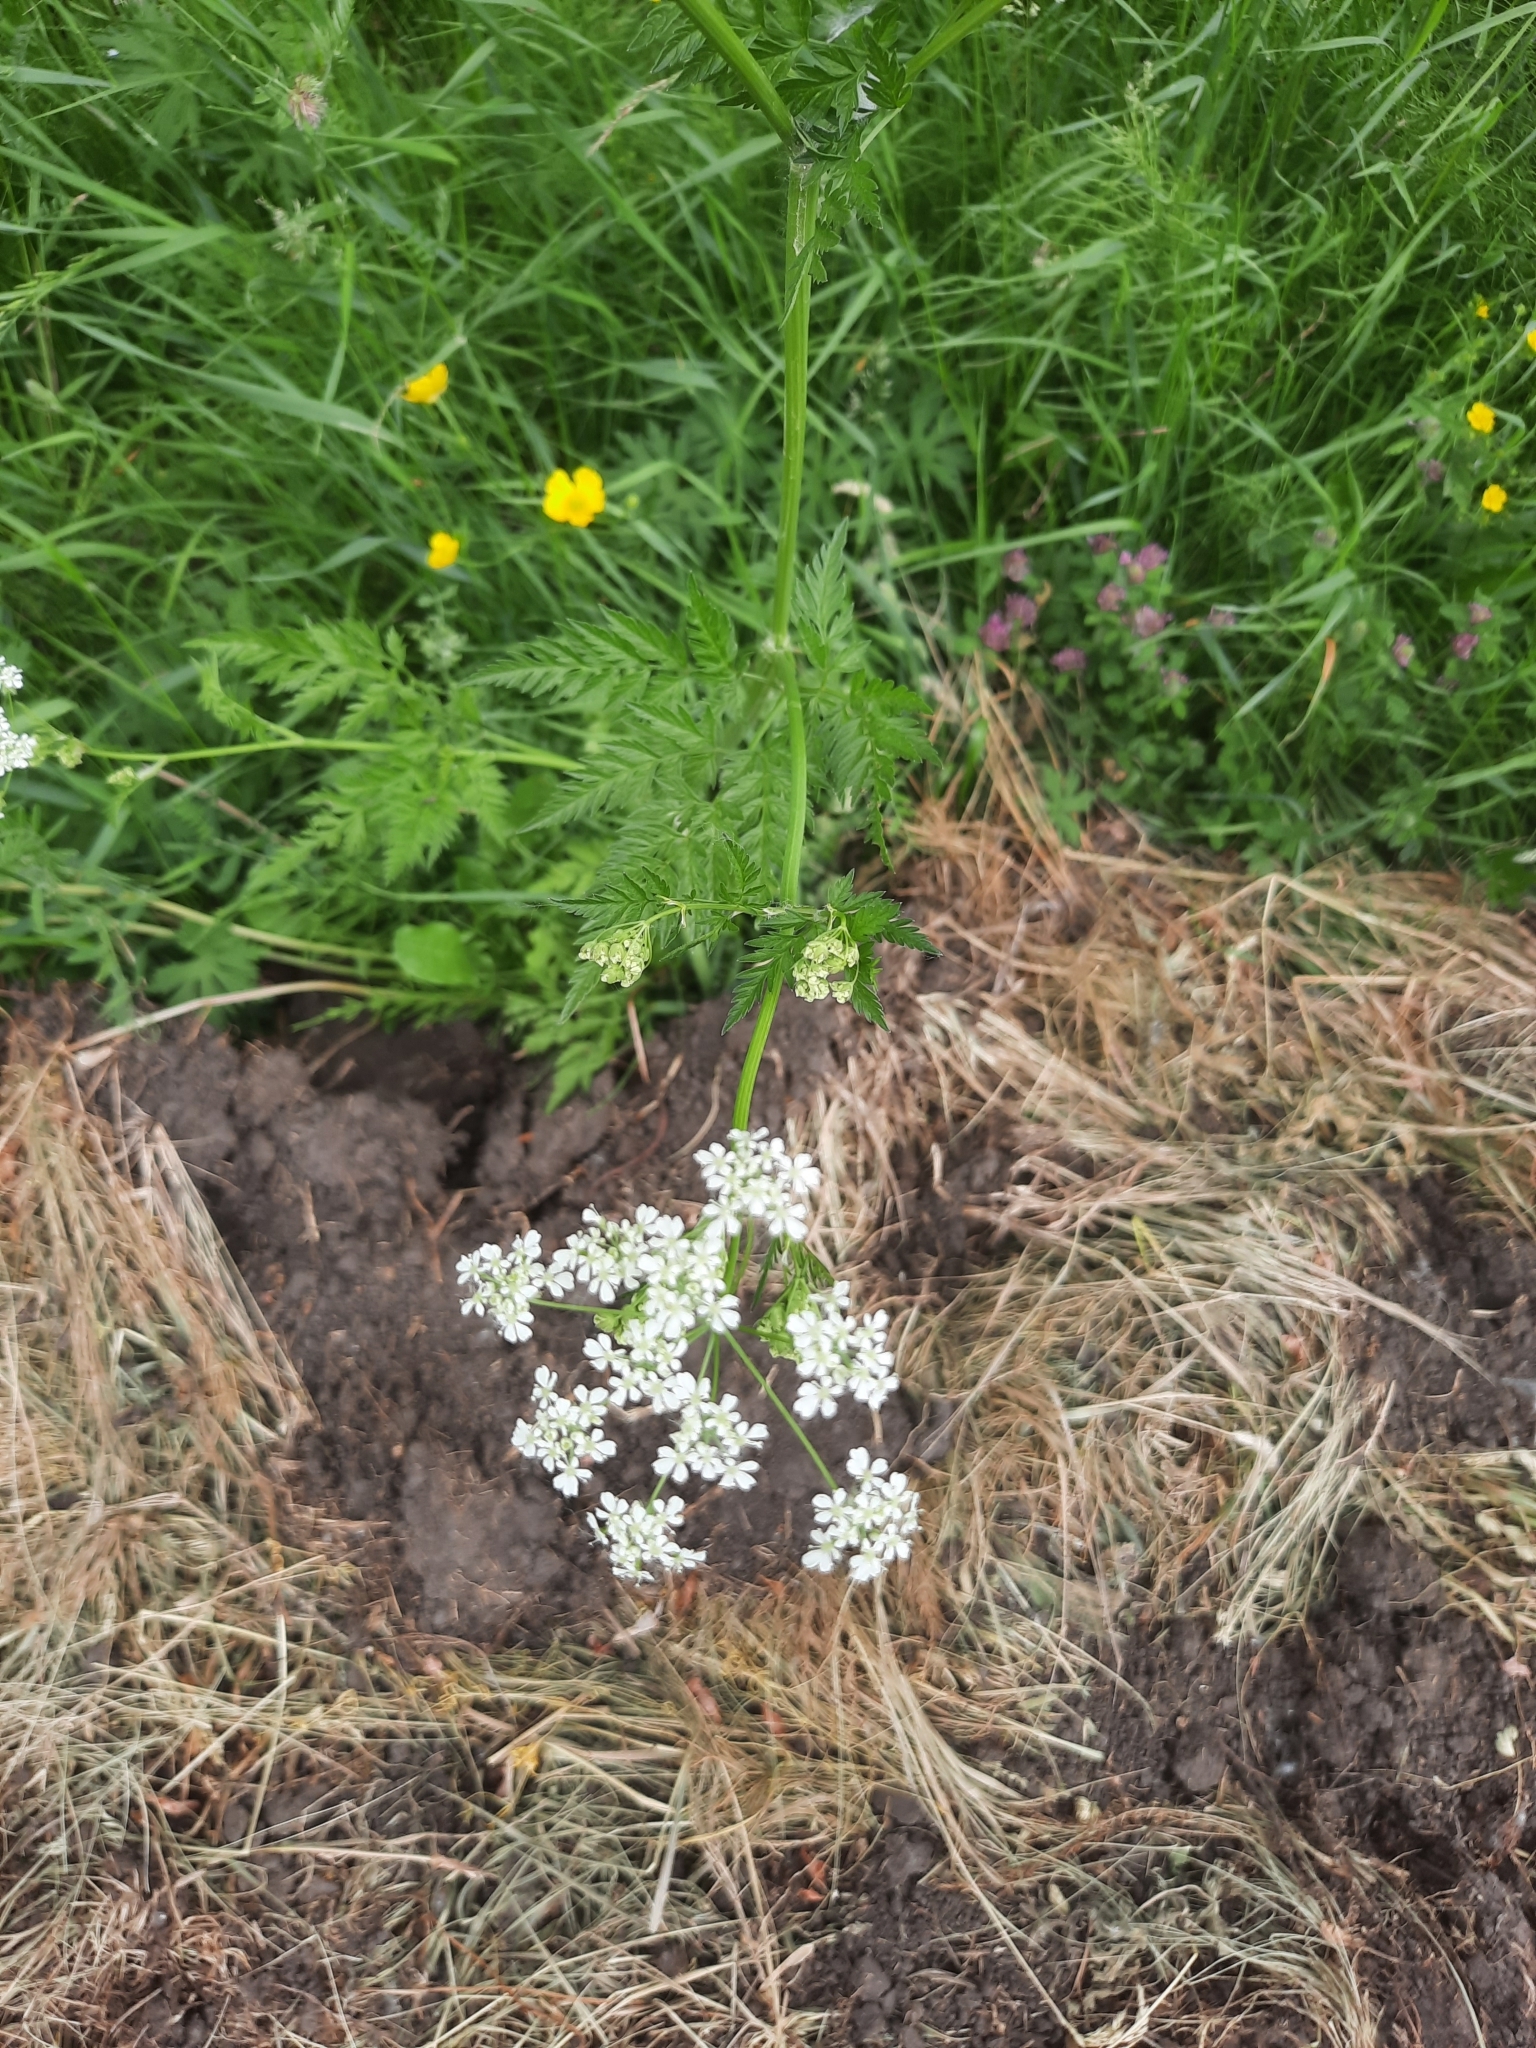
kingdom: Plantae
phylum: Tracheophyta
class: Magnoliopsida
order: Apiales
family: Apiaceae
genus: Anthriscus
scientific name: Anthriscus sylvestris
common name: Cow parsley
